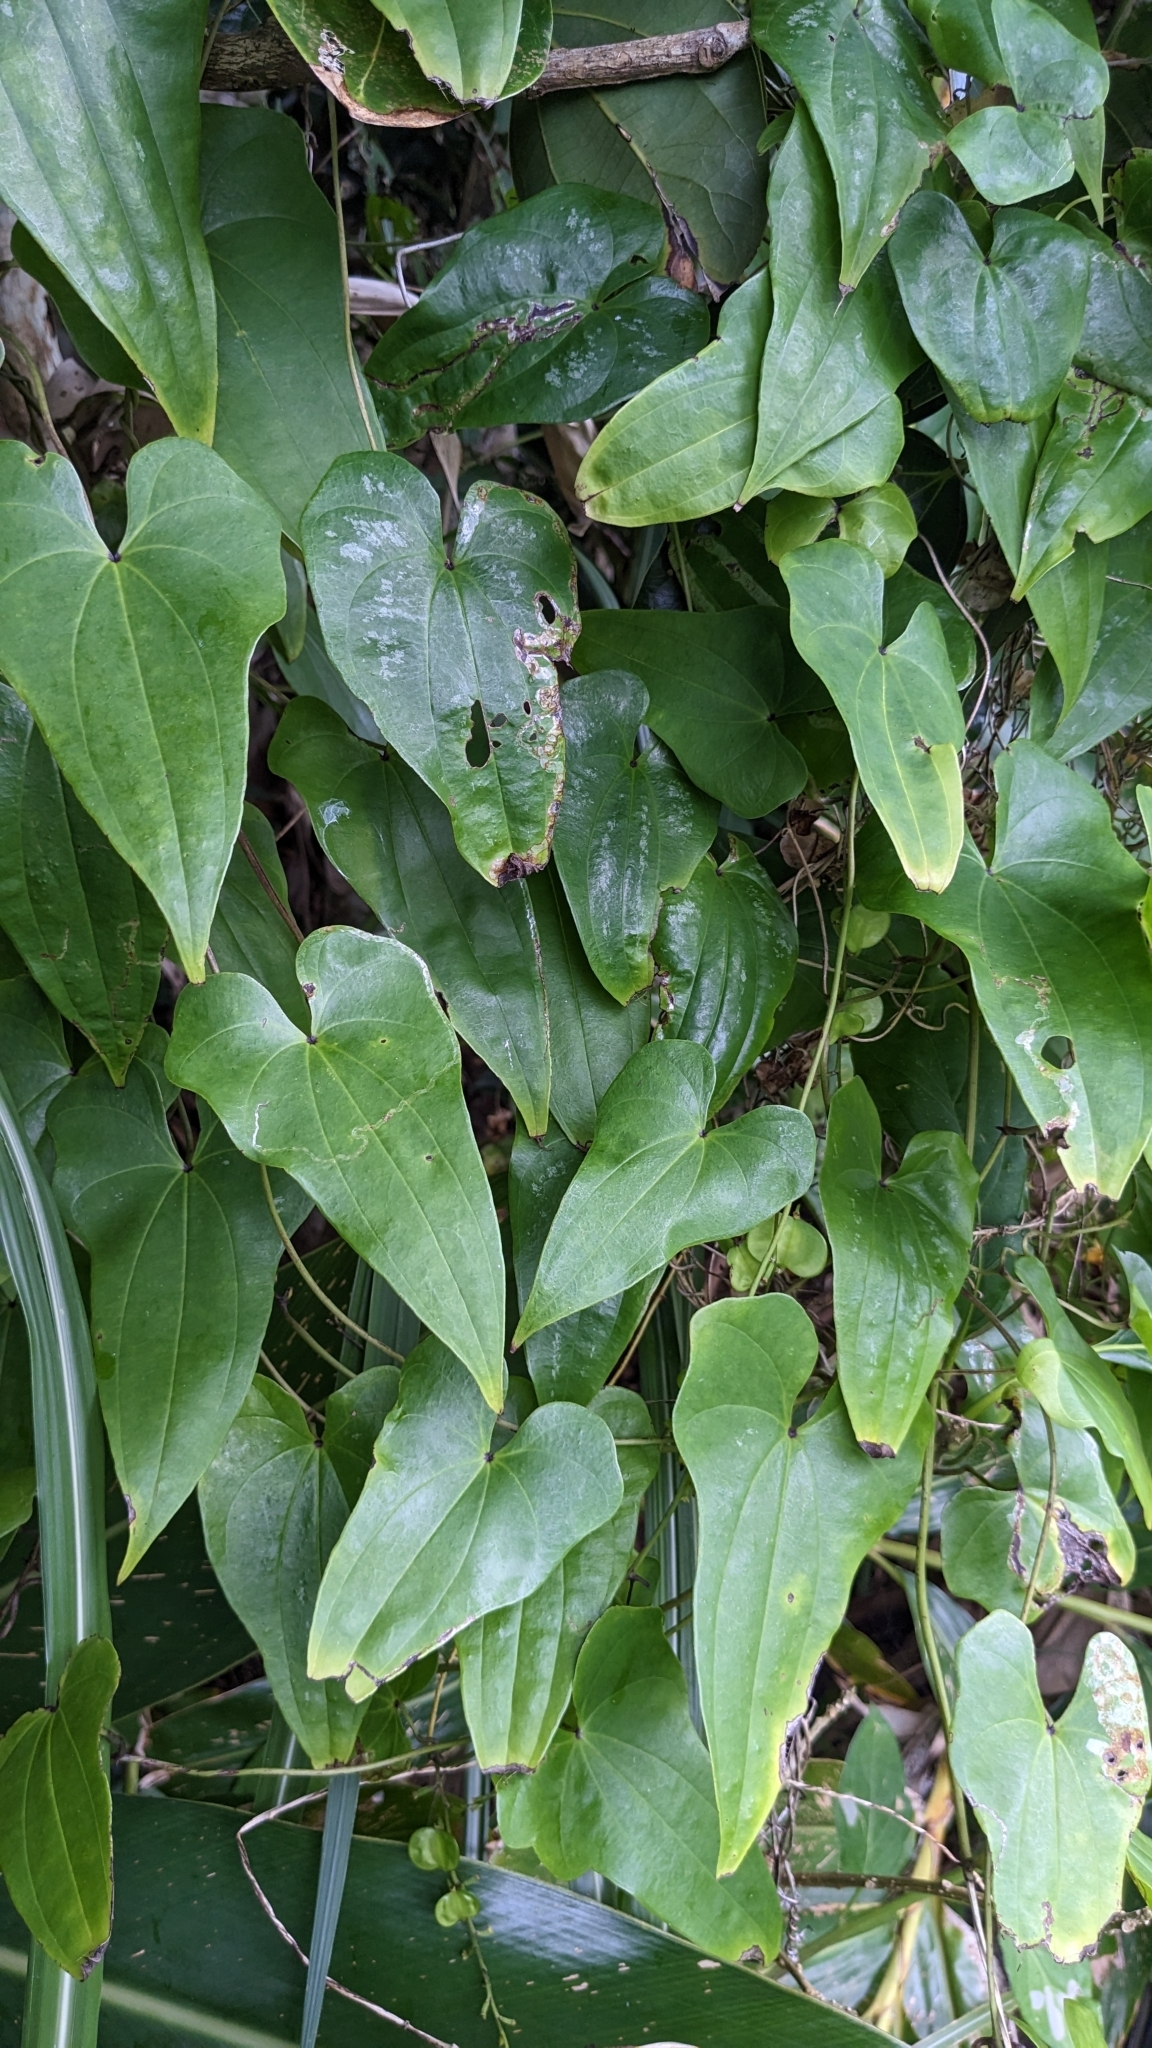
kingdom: Plantae
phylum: Tracheophyta
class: Liliopsida
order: Dioscoreales
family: Dioscoreaceae
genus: Dioscorea
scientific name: Dioscorea collettii
